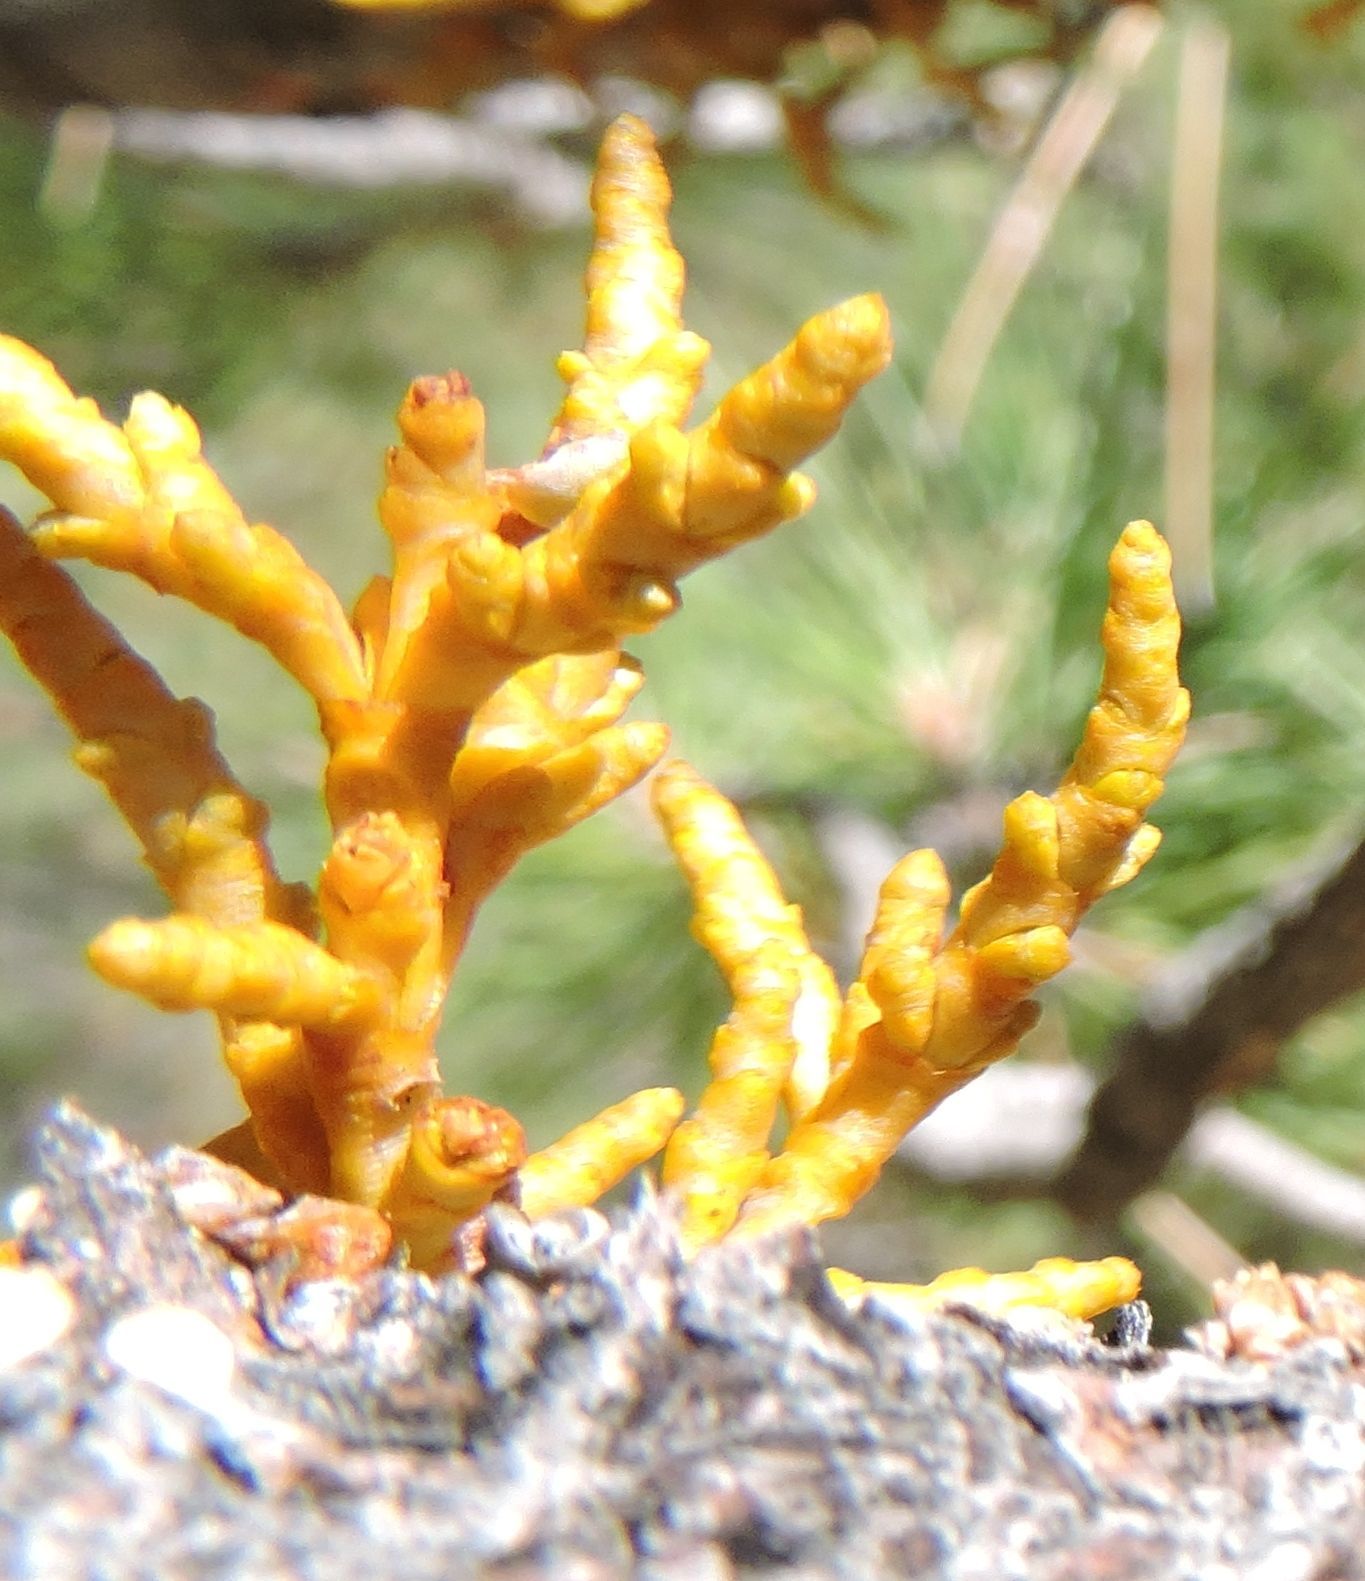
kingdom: Plantae
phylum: Tracheophyta
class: Magnoliopsida
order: Santalales
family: Viscaceae
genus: Arceuthobium
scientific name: Arceuthobium campylopodum
